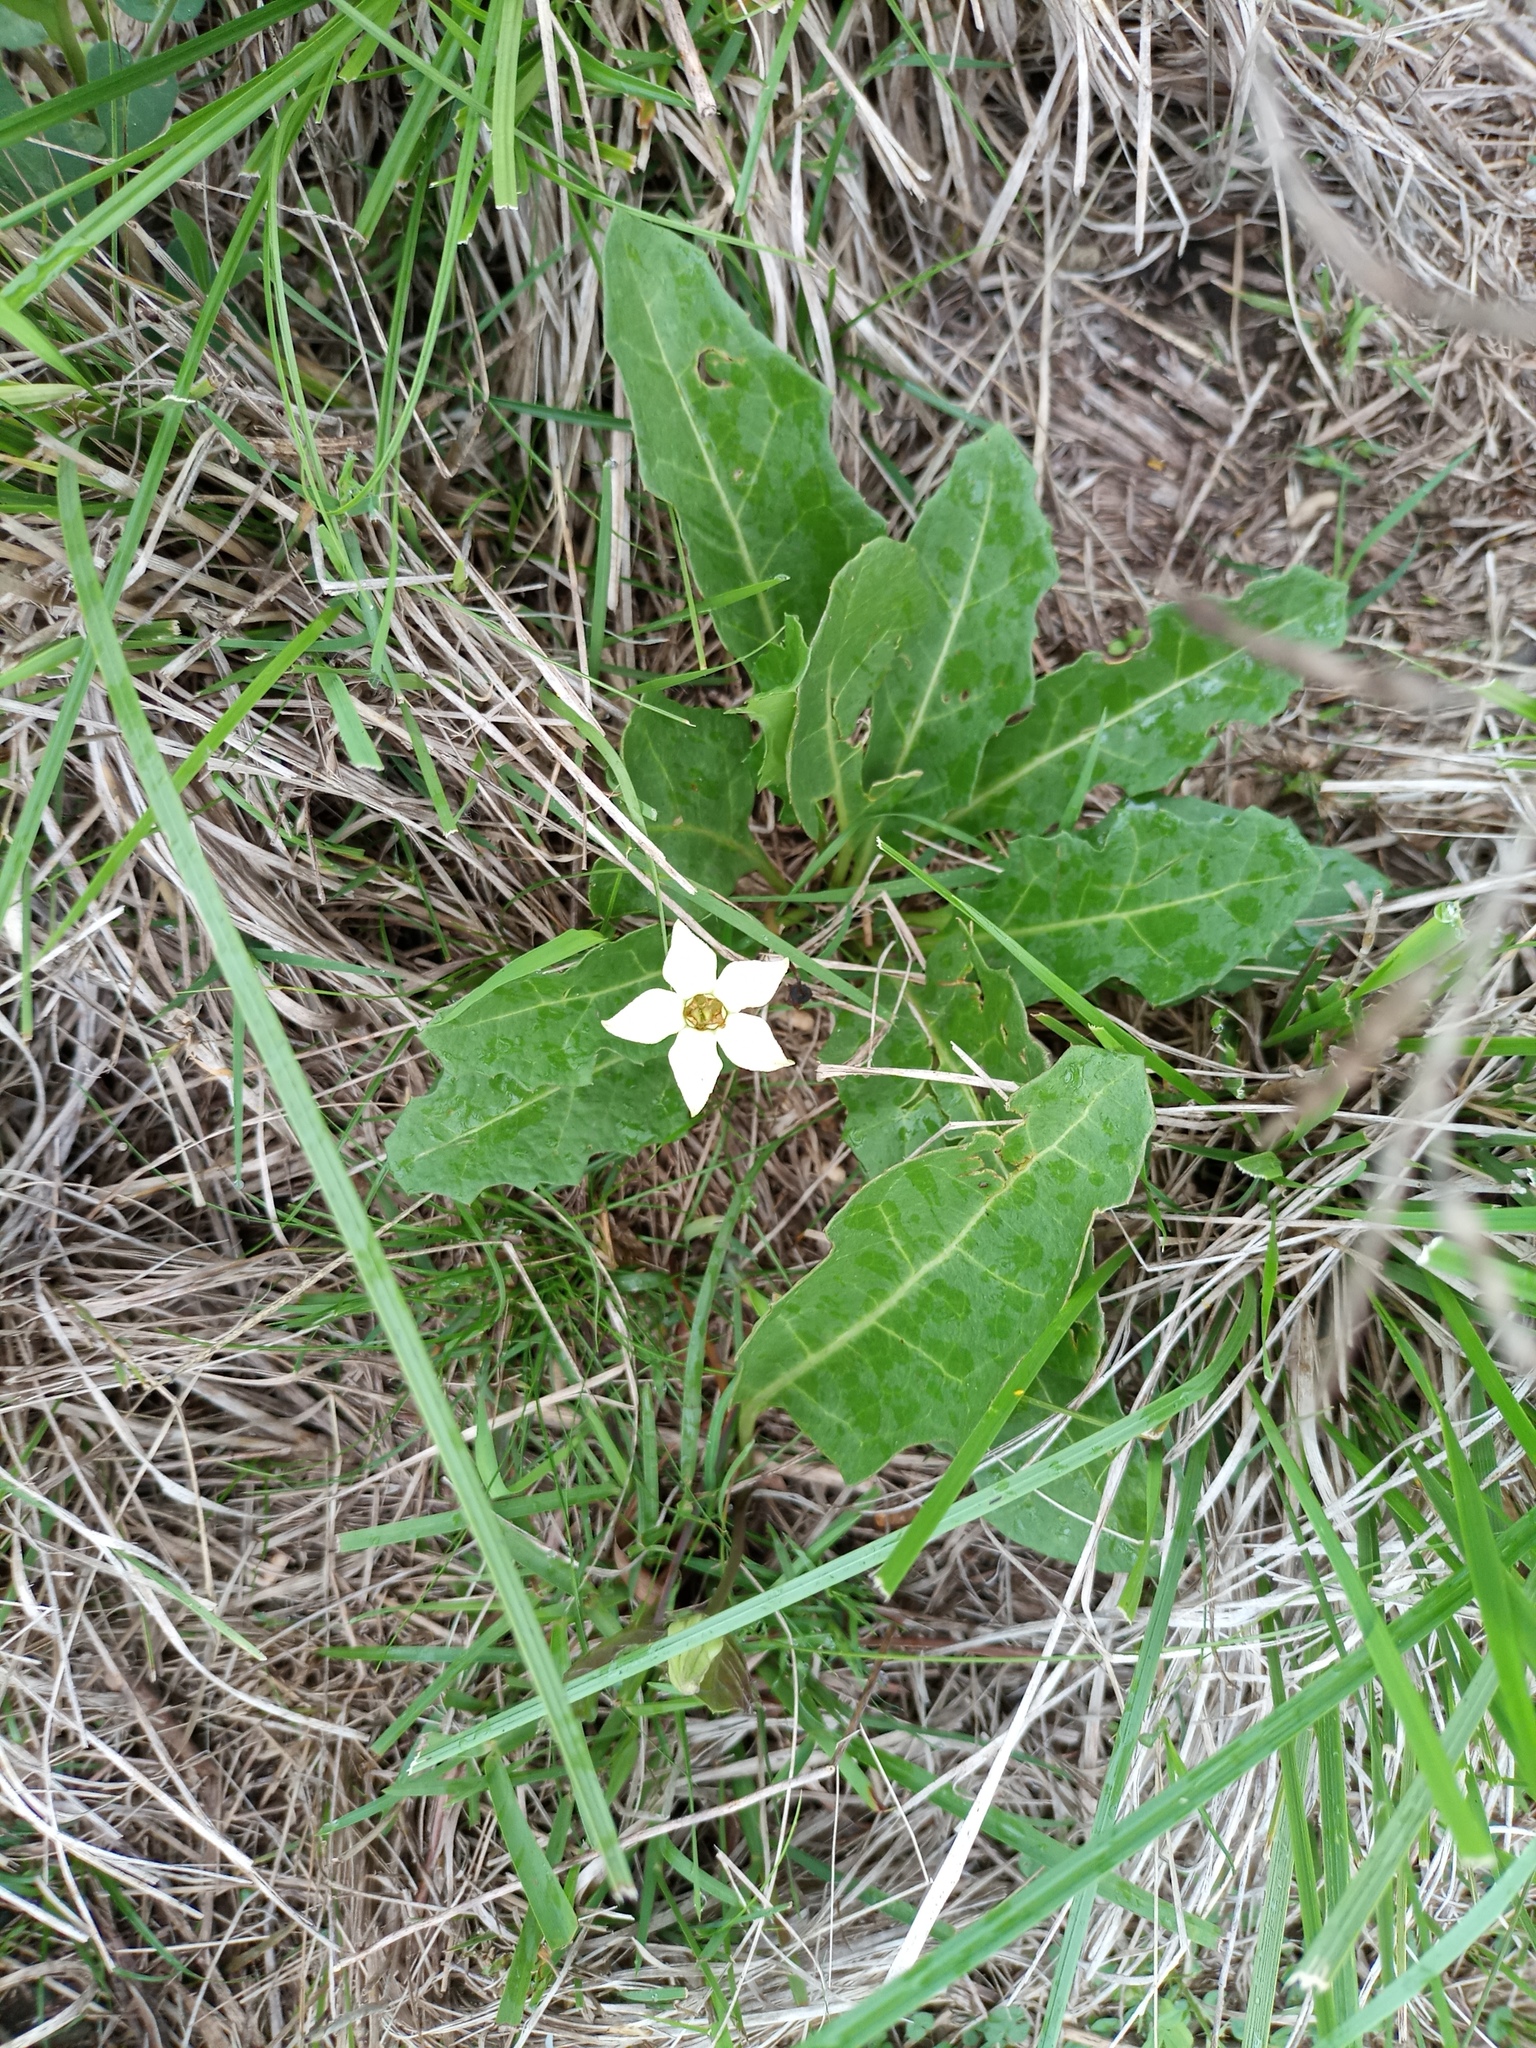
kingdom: Plantae
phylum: Tracheophyta
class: Magnoliopsida
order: Solanales
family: Solanaceae
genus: Jaborosa
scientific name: Jaborosa runcinata
